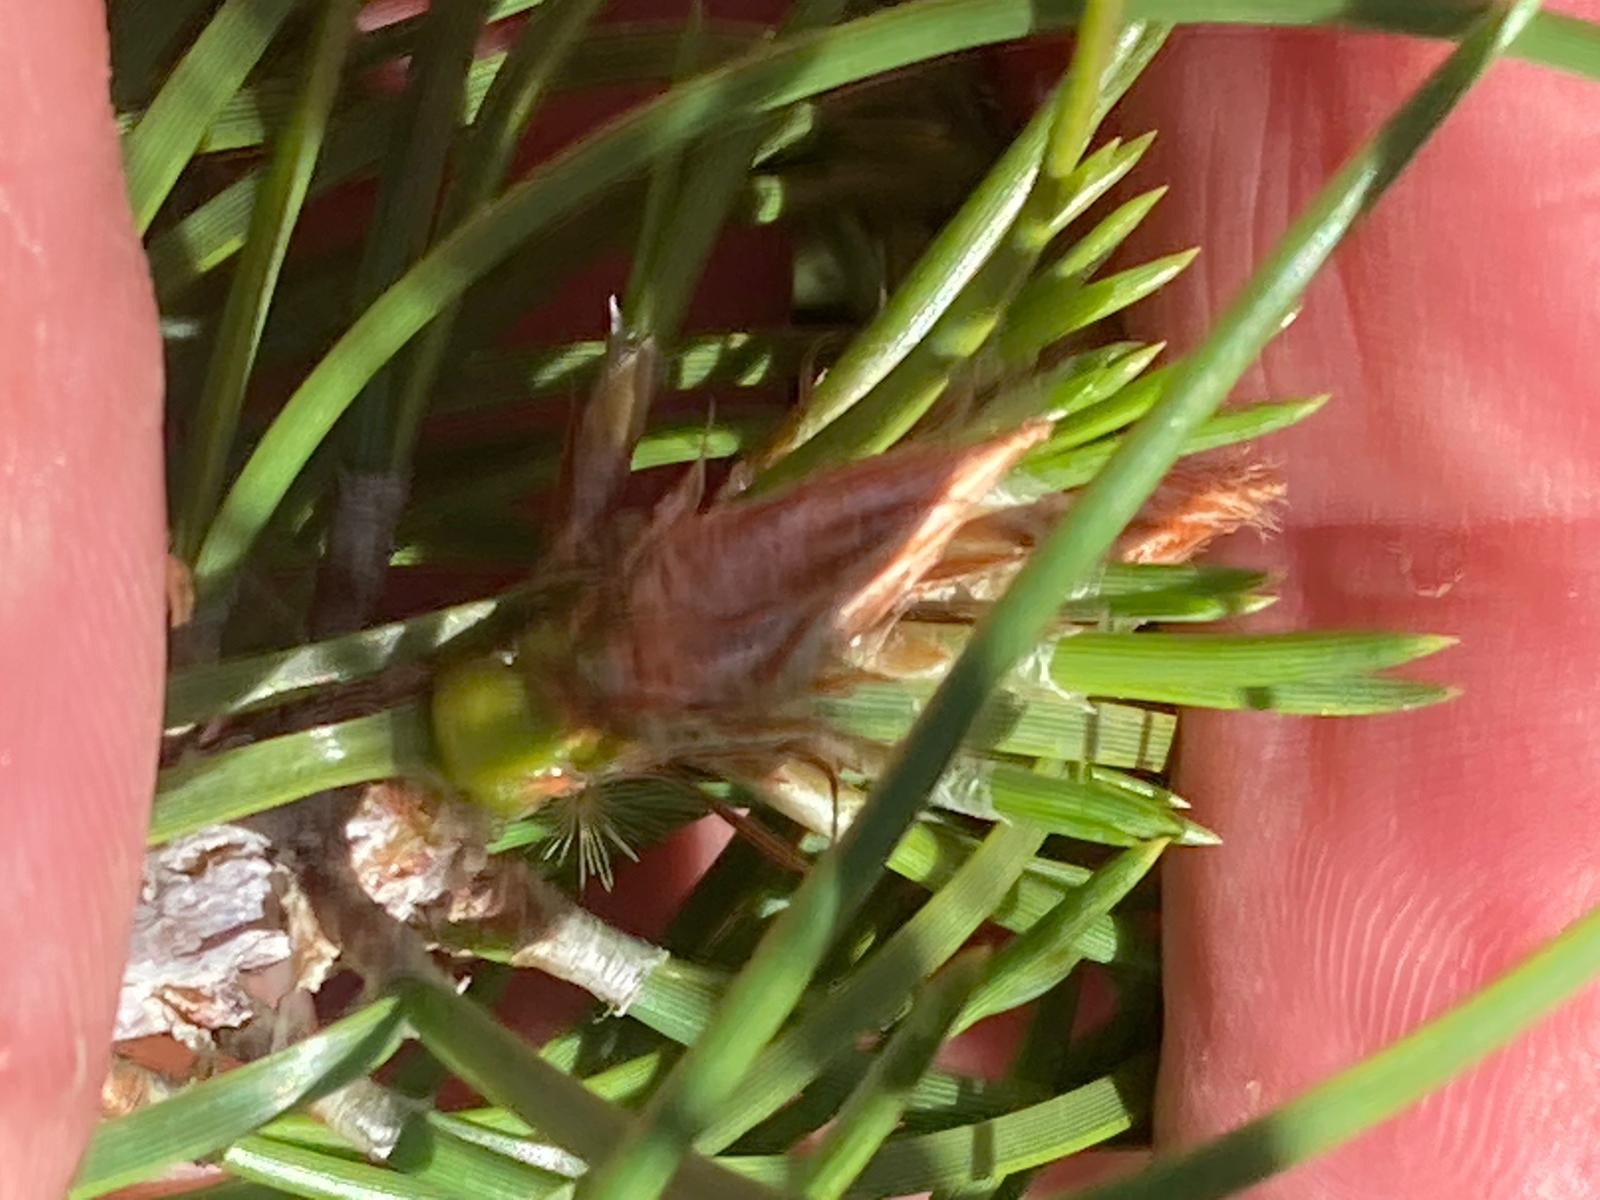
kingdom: Plantae
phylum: Tracheophyta
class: Pinopsida
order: Pinales
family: Pinaceae
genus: Pinus
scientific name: Pinus nigra
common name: Austrian pine
